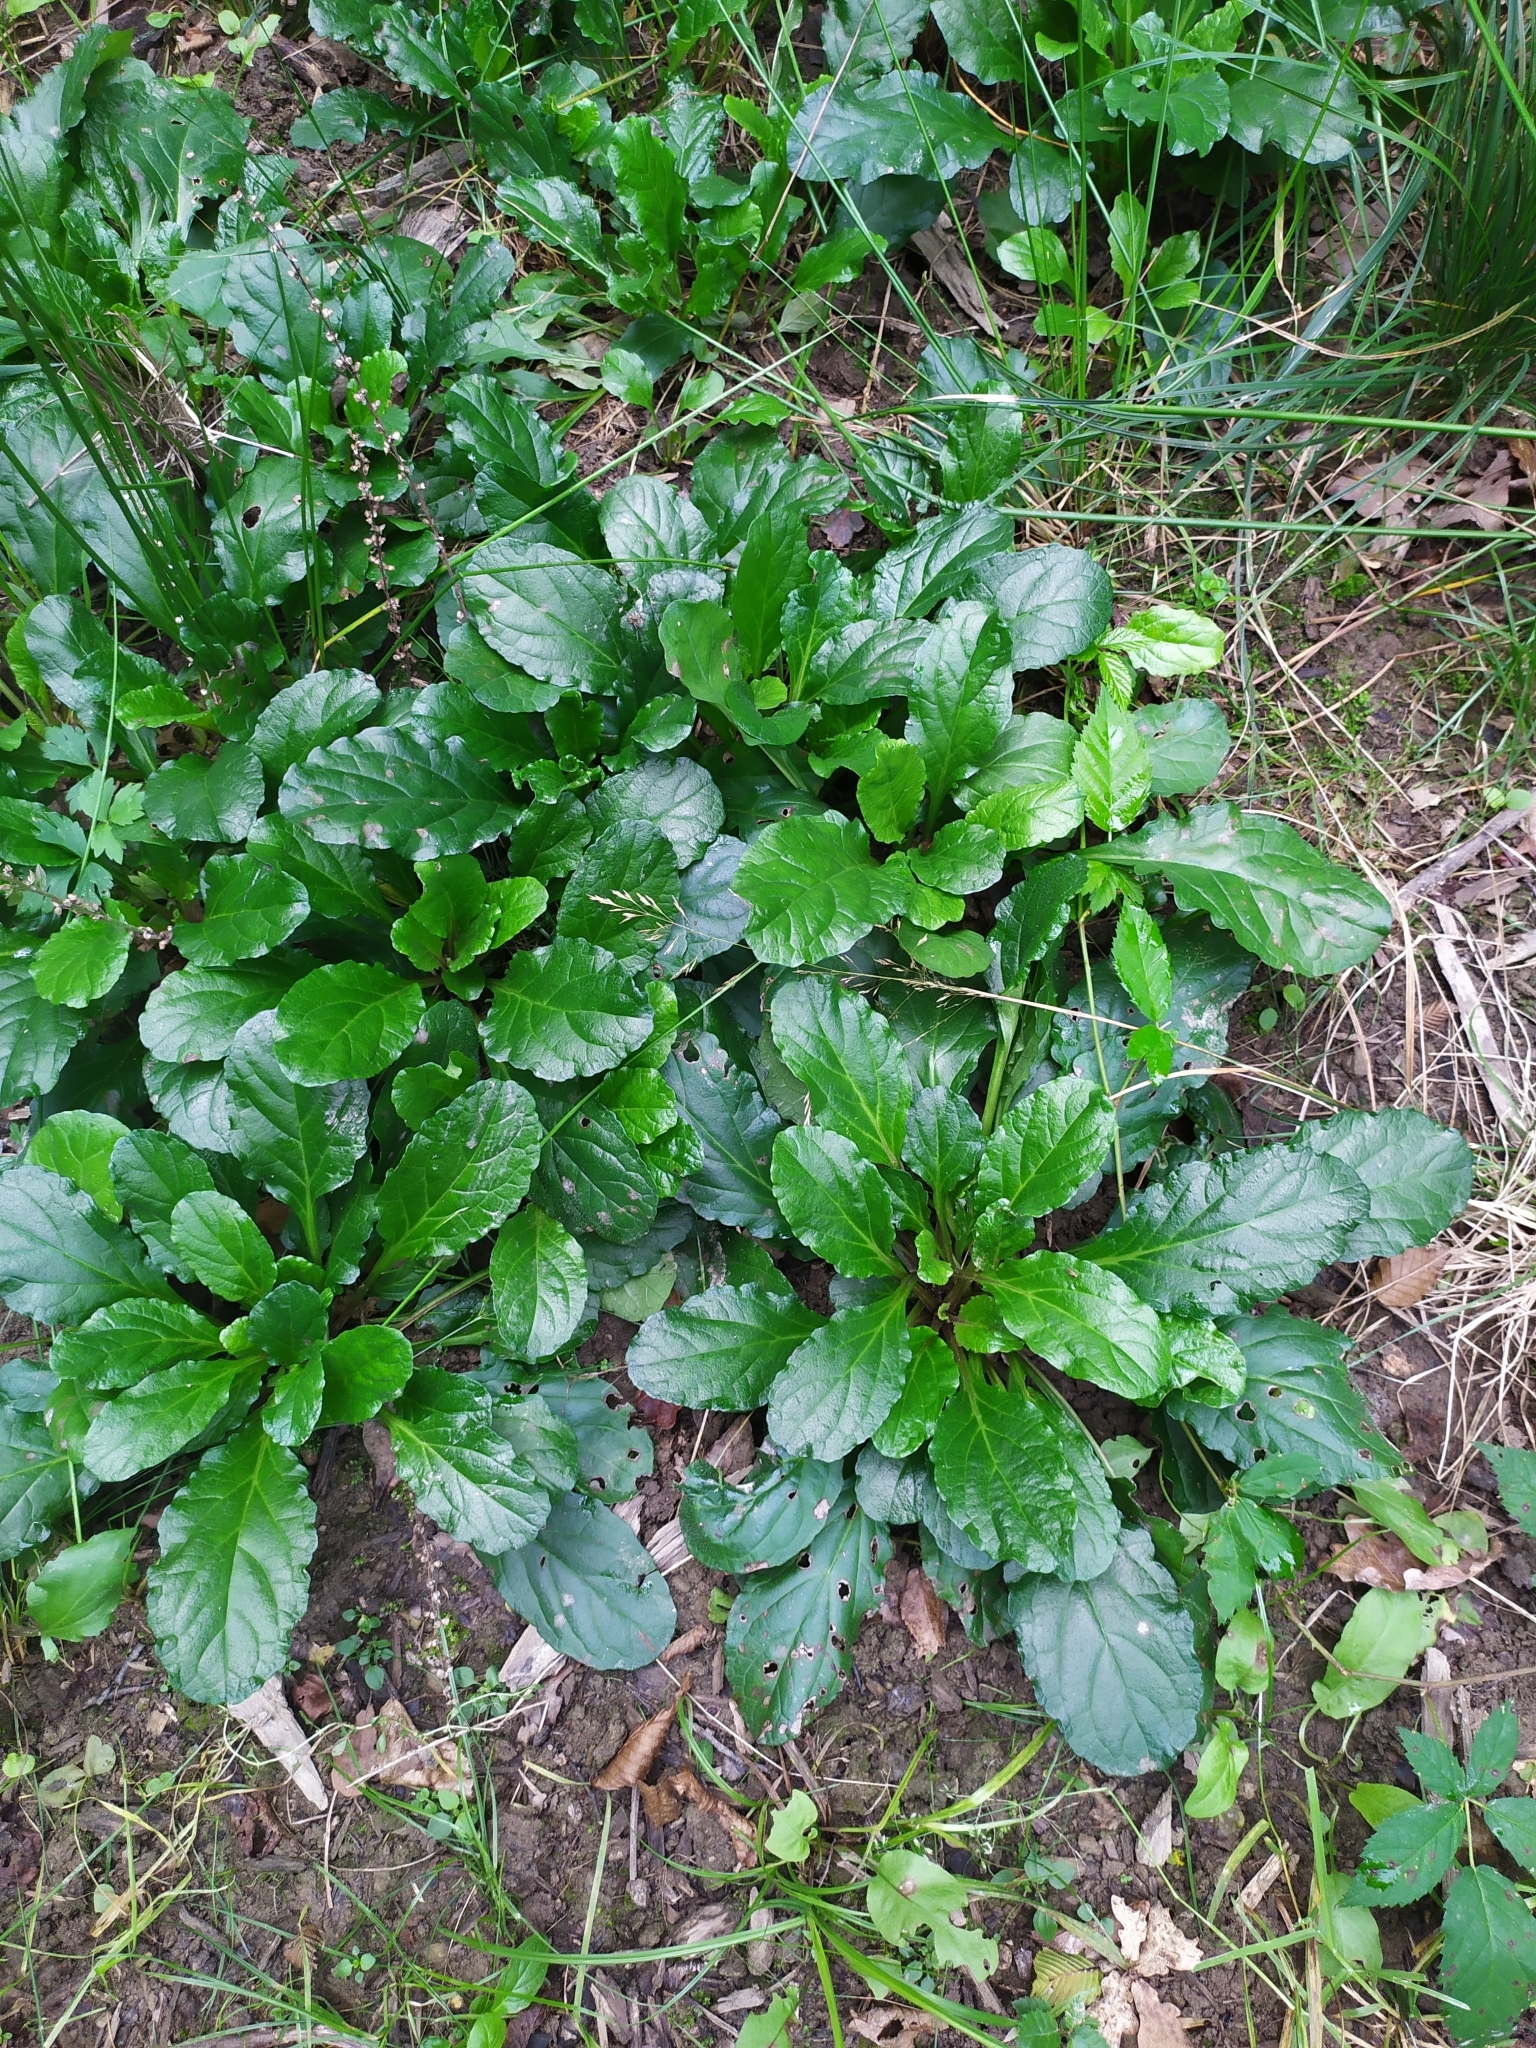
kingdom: Plantae
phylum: Tracheophyta
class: Magnoliopsida
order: Lamiales
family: Lamiaceae
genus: Ajuga
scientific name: Ajuga reptans
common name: Bugle
